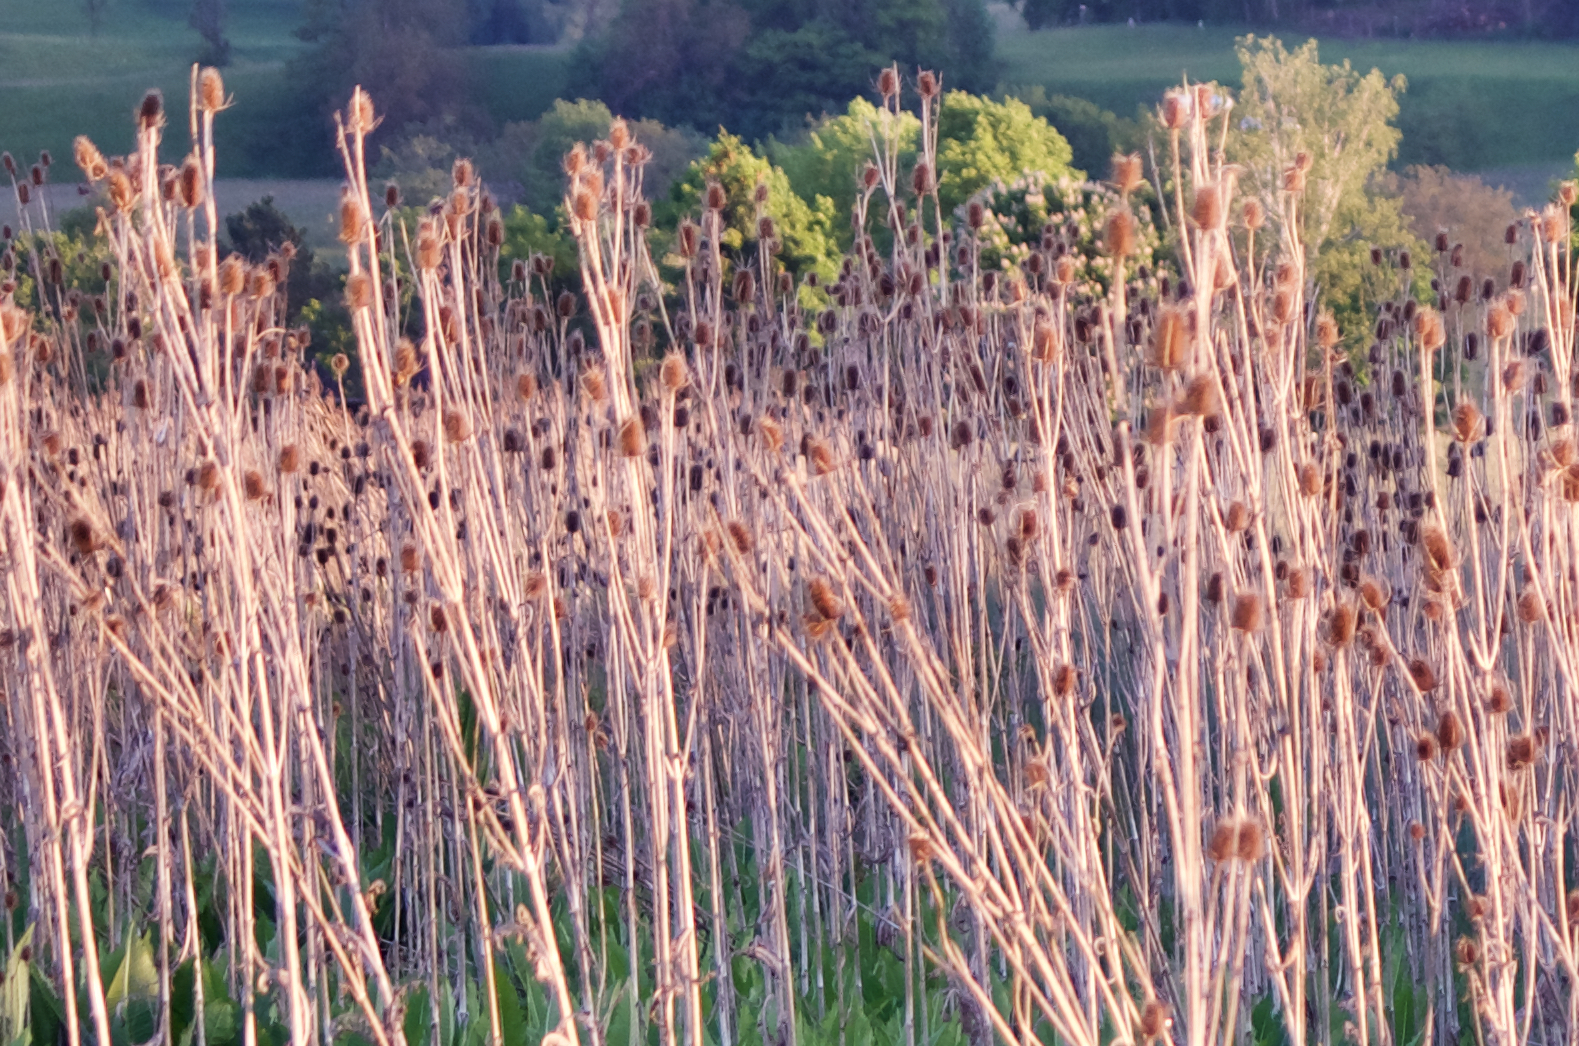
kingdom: Plantae
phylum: Tracheophyta
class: Magnoliopsida
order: Dipsacales
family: Caprifoliaceae
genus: Dipsacus
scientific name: Dipsacus laciniatus
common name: Cut-leaved teasel
